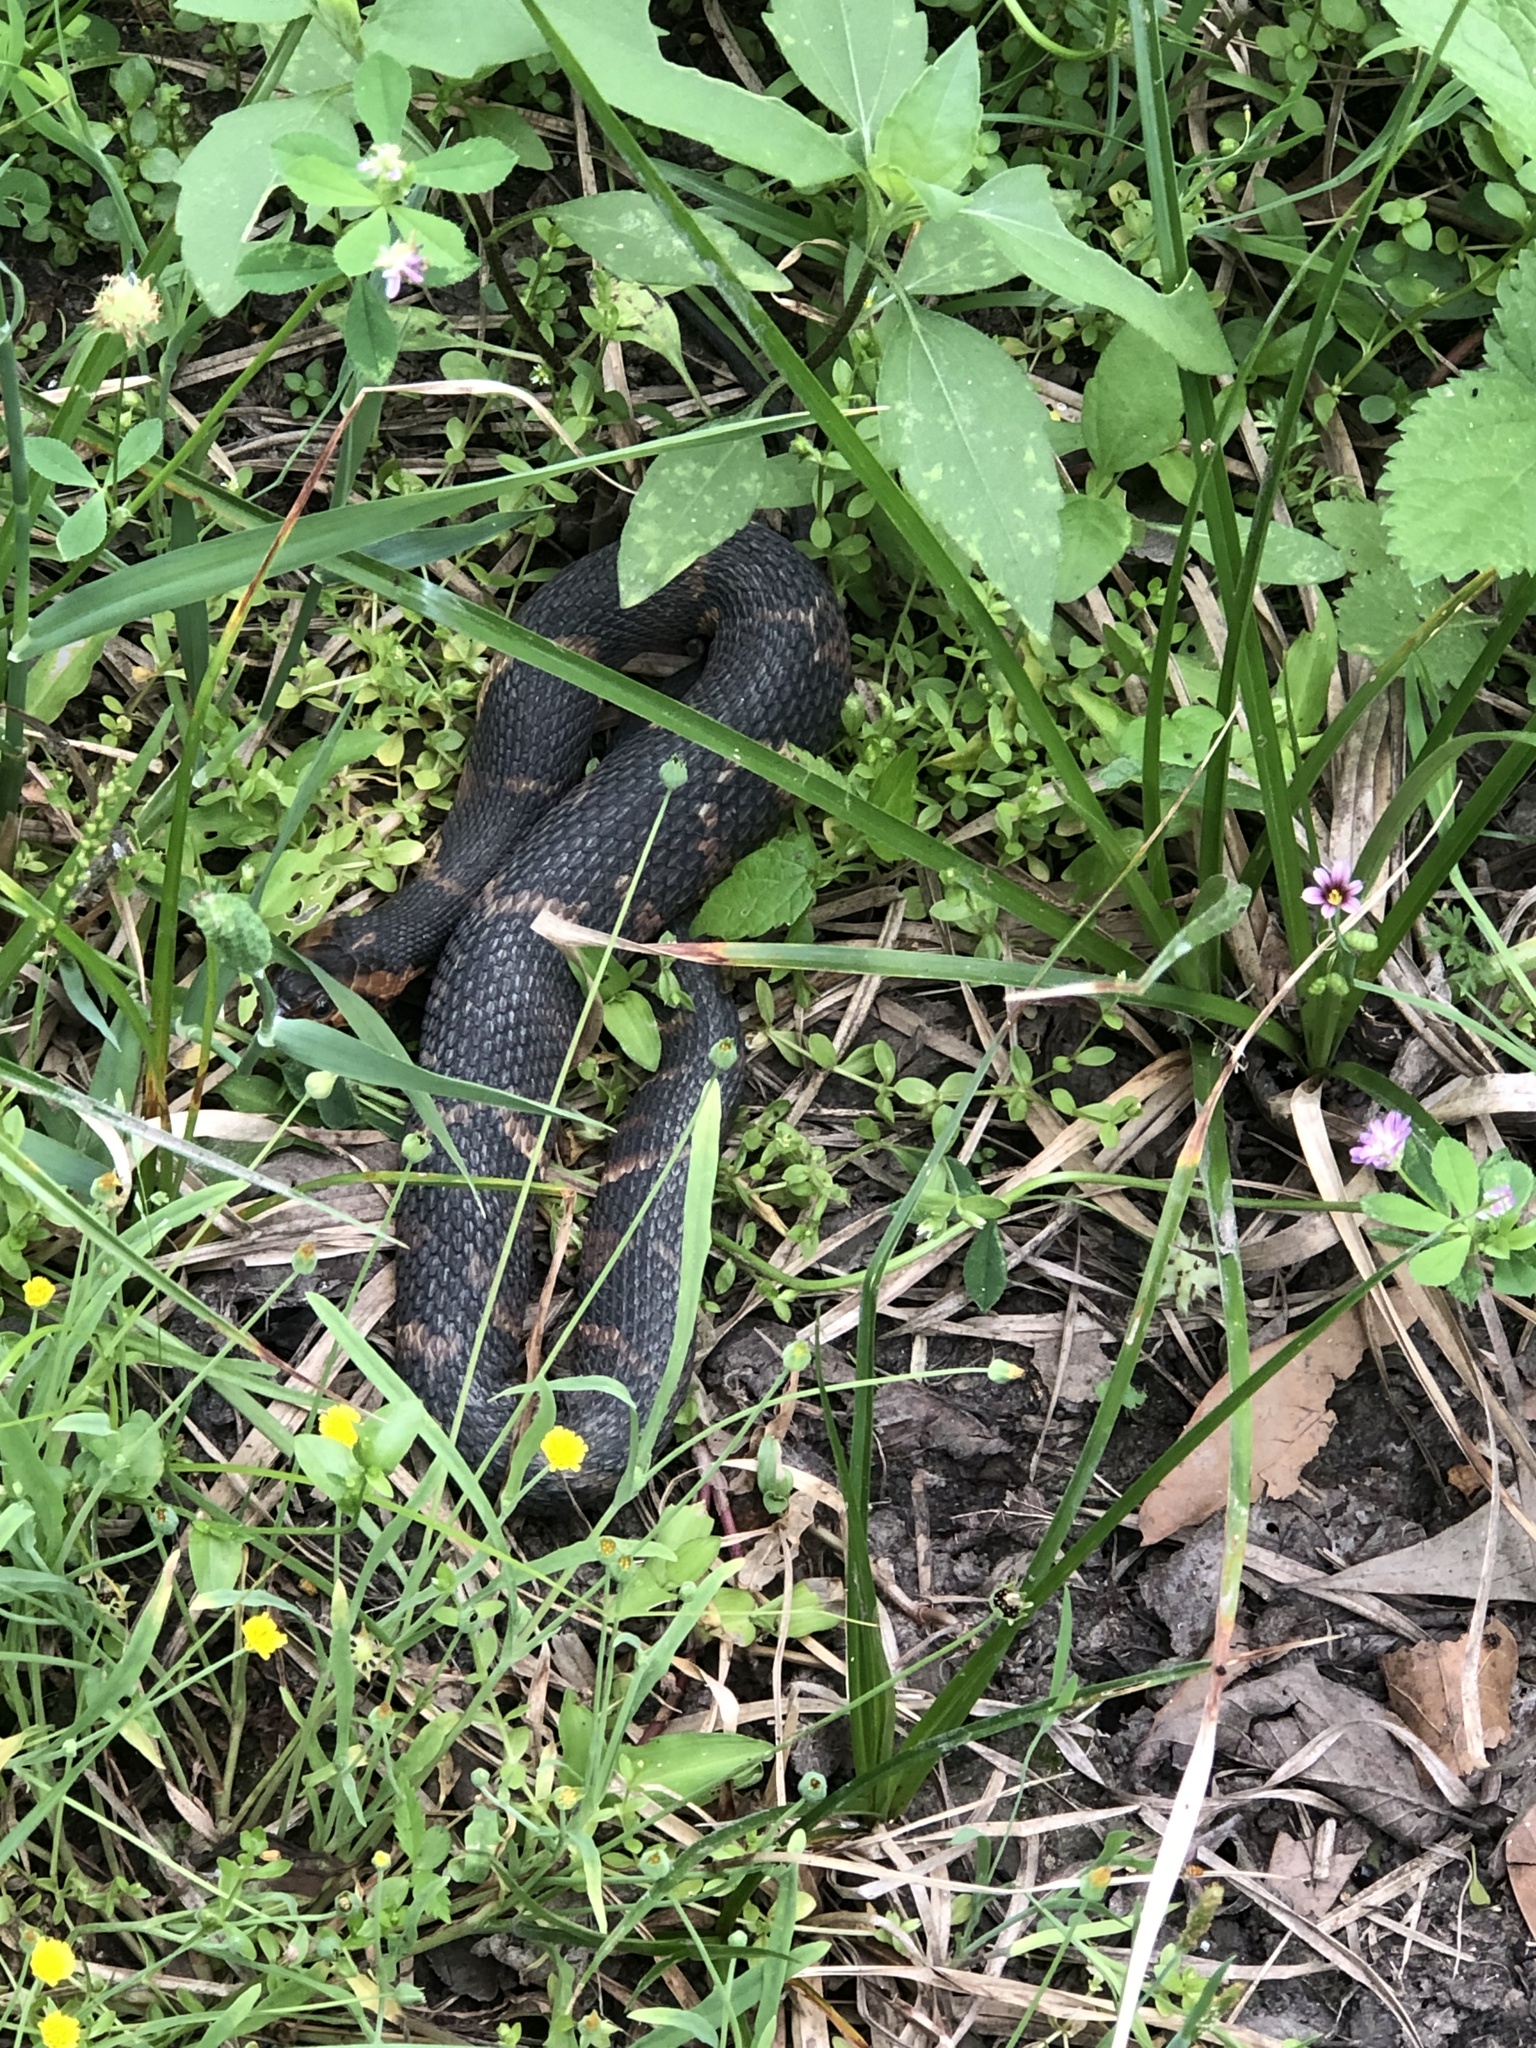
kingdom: Animalia
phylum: Chordata
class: Squamata
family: Colubridae
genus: Nerodia
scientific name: Nerodia fasciata
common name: Southern water snake
